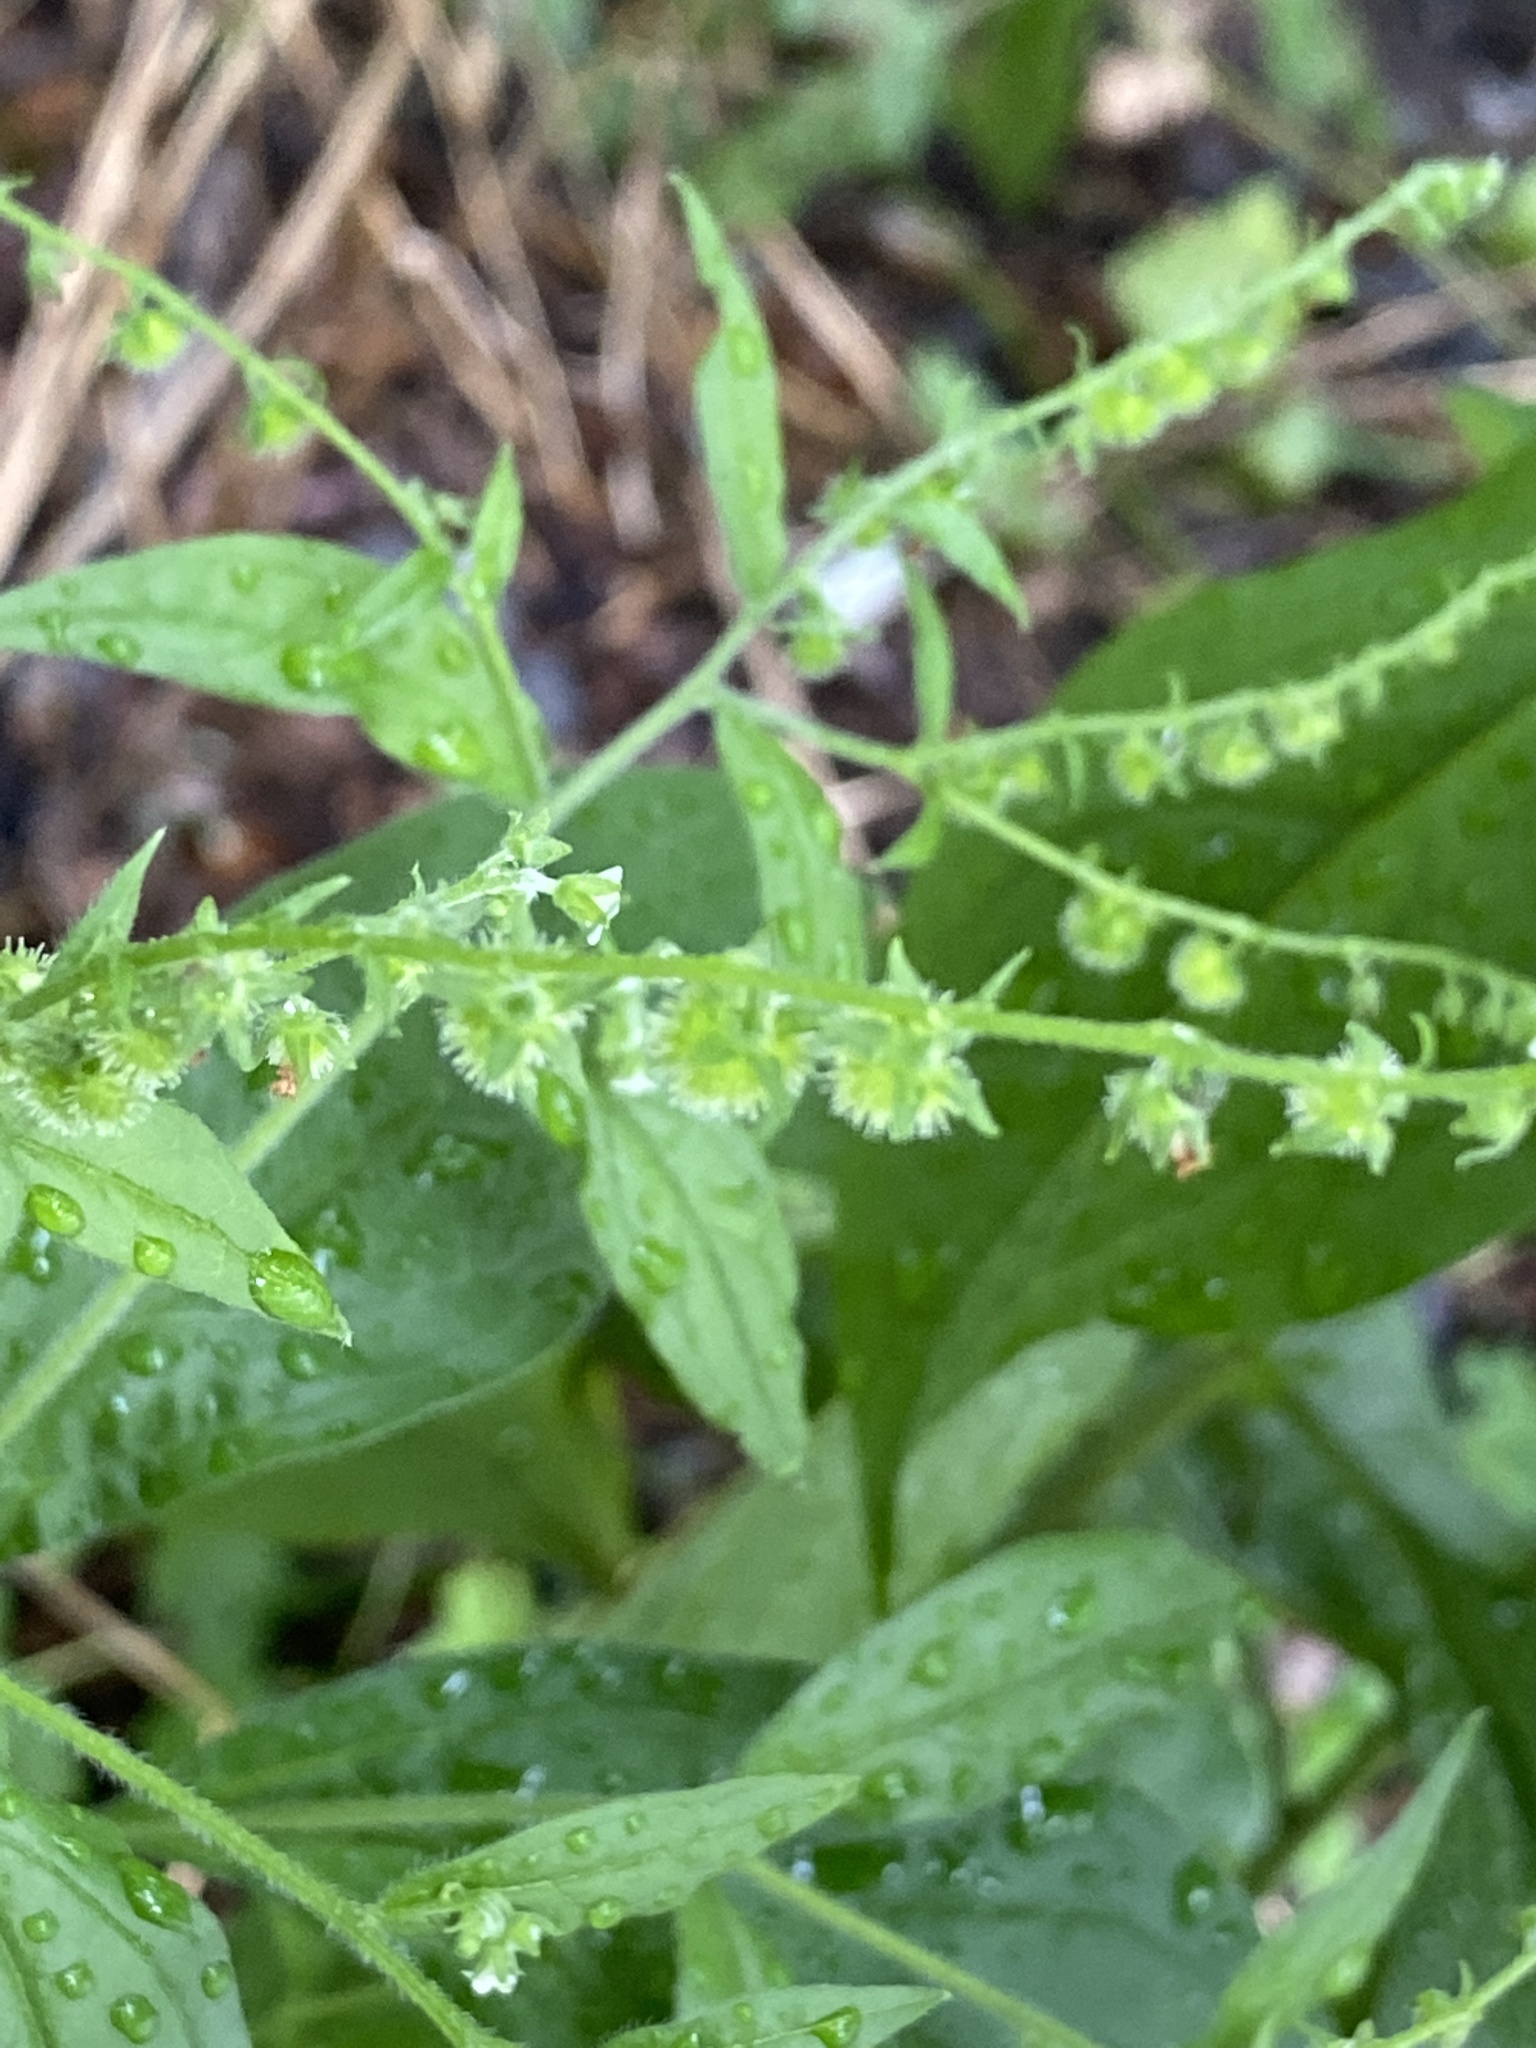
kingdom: Plantae
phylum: Tracheophyta
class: Magnoliopsida
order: Boraginales
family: Boraginaceae
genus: Hackelia
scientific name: Hackelia virginiana
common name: Beggar's-lice
